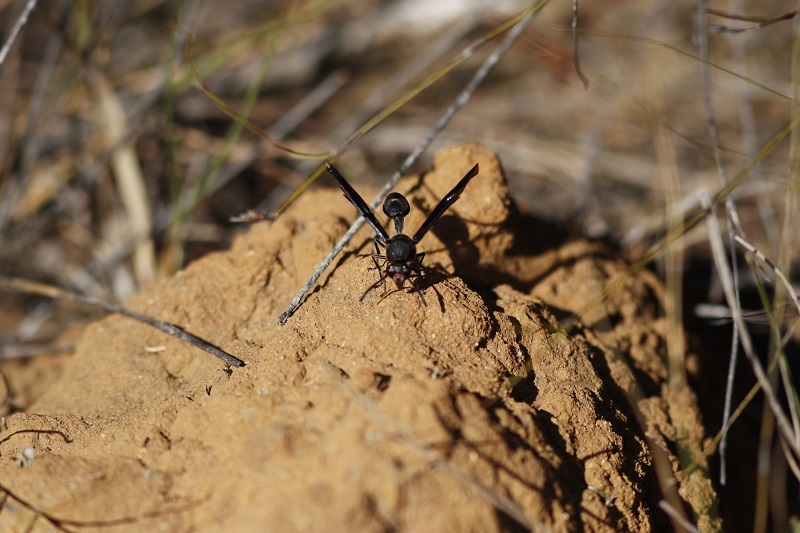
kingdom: Animalia
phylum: Arthropoda
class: Insecta
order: Hymenoptera
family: Eumenidae
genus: Delta
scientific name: Delta bonellii
